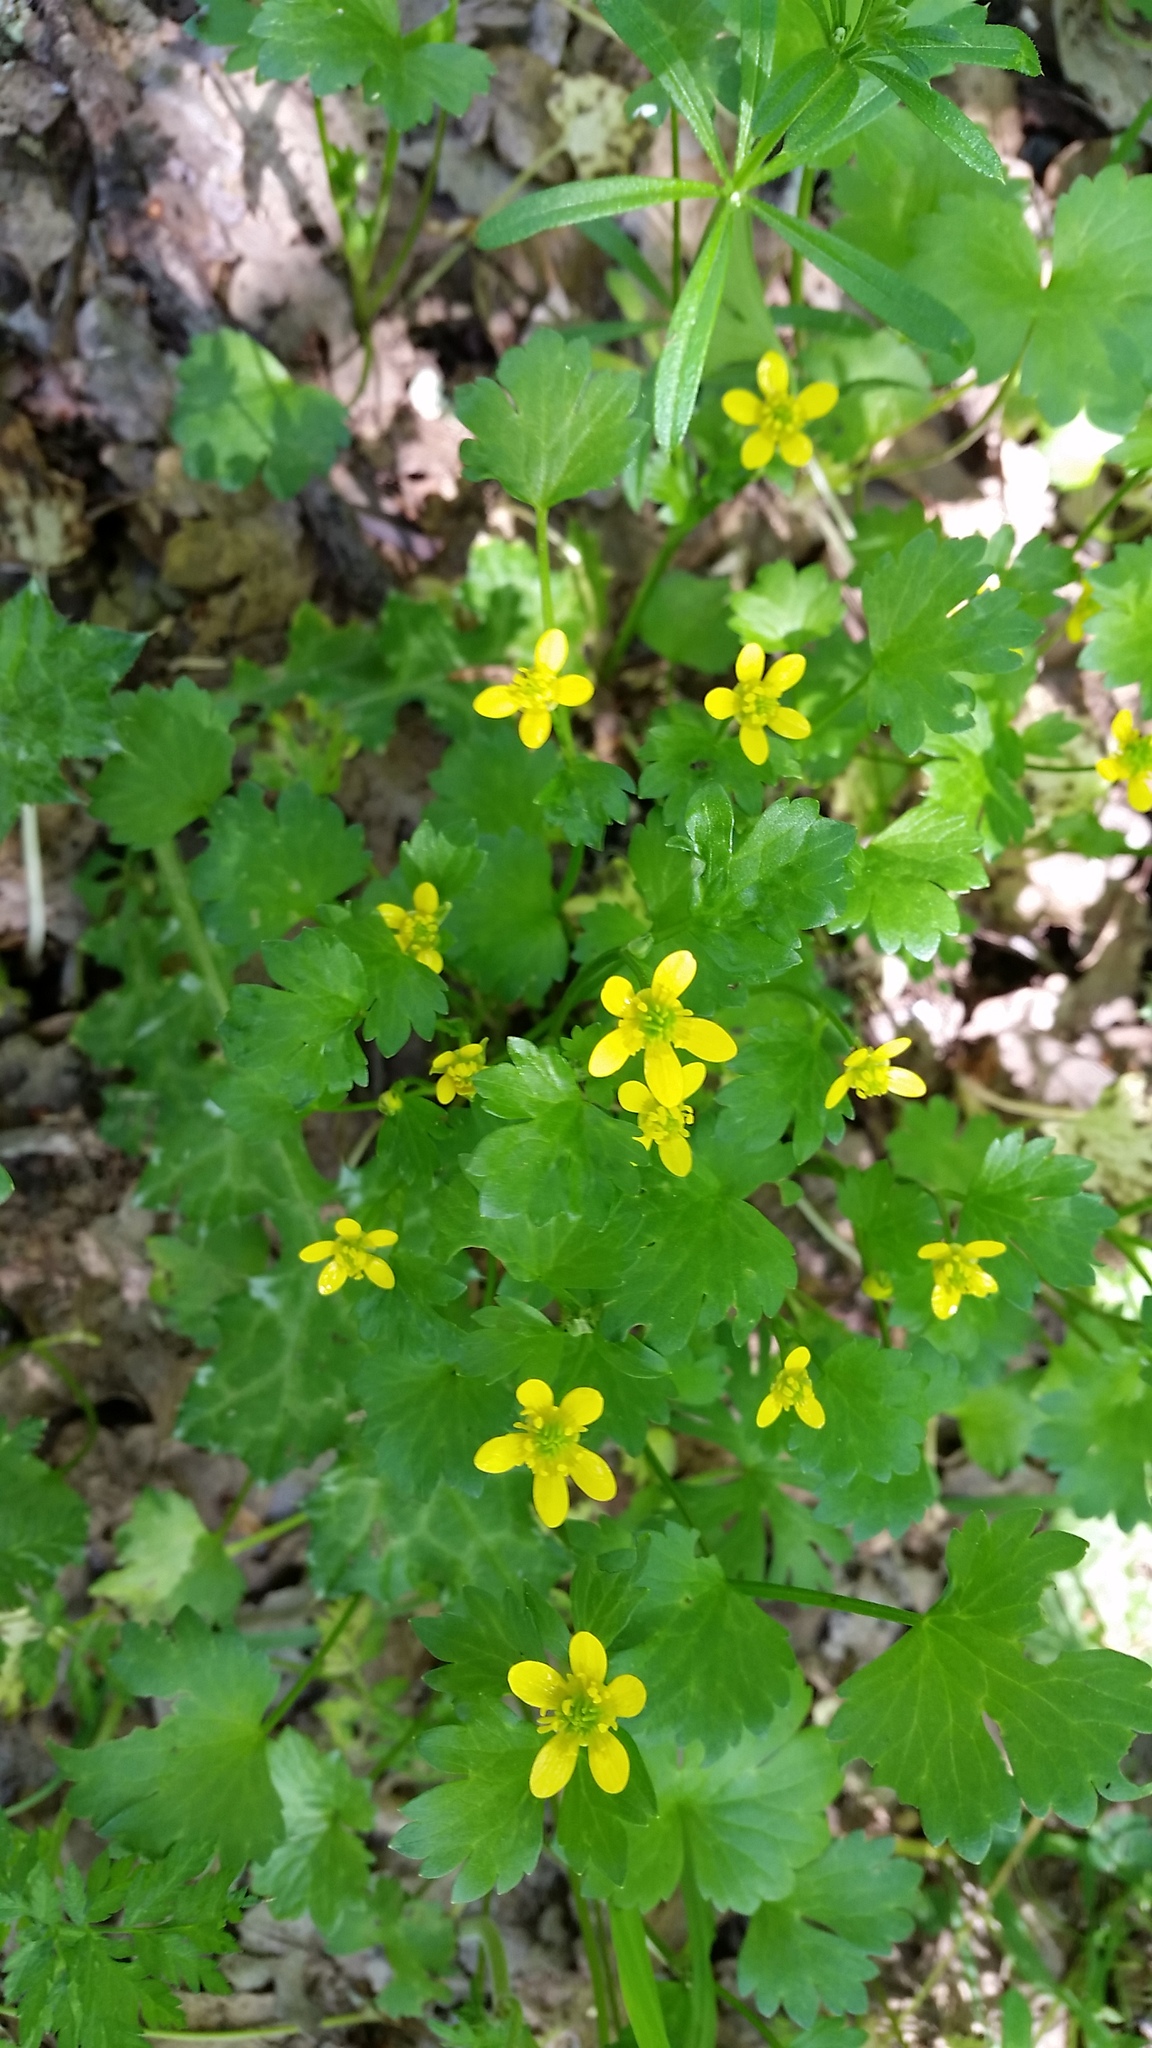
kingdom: Plantae
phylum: Tracheophyta
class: Magnoliopsida
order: Ranunculales
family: Ranunculaceae
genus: Ranunculus
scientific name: Ranunculus muricatus
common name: Rough-fruited buttercup
